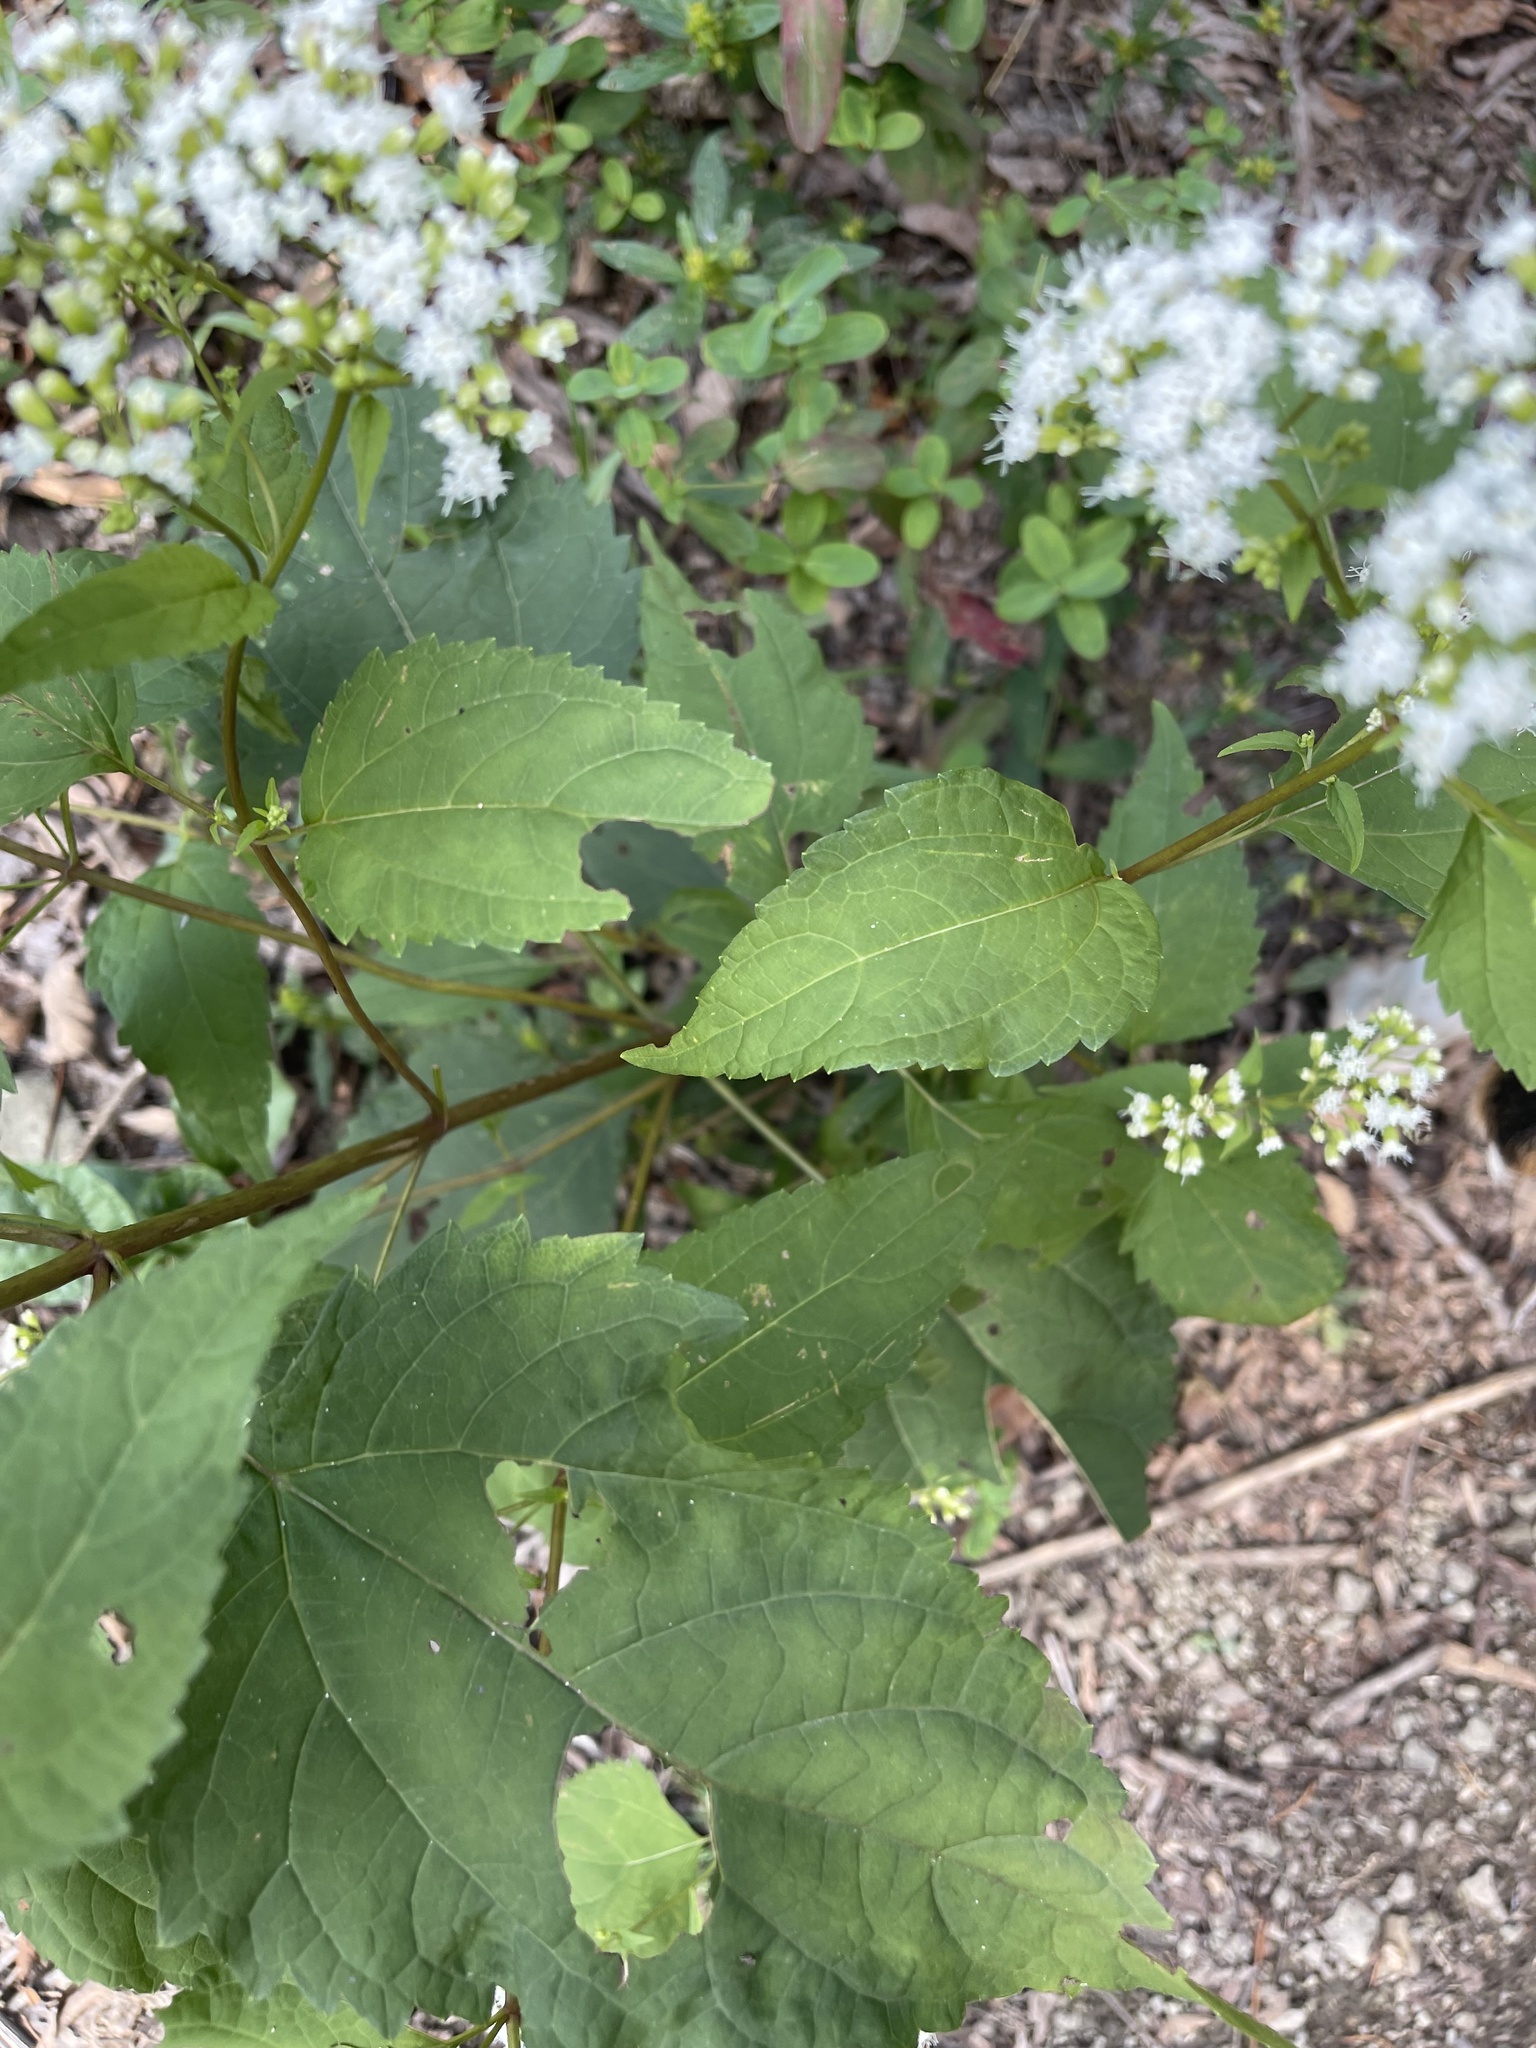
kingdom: Plantae
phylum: Tracheophyta
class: Magnoliopsida
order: Asterales
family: Asteraceae
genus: Ageratina
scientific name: Ageratina altissima
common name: White snakeroot
